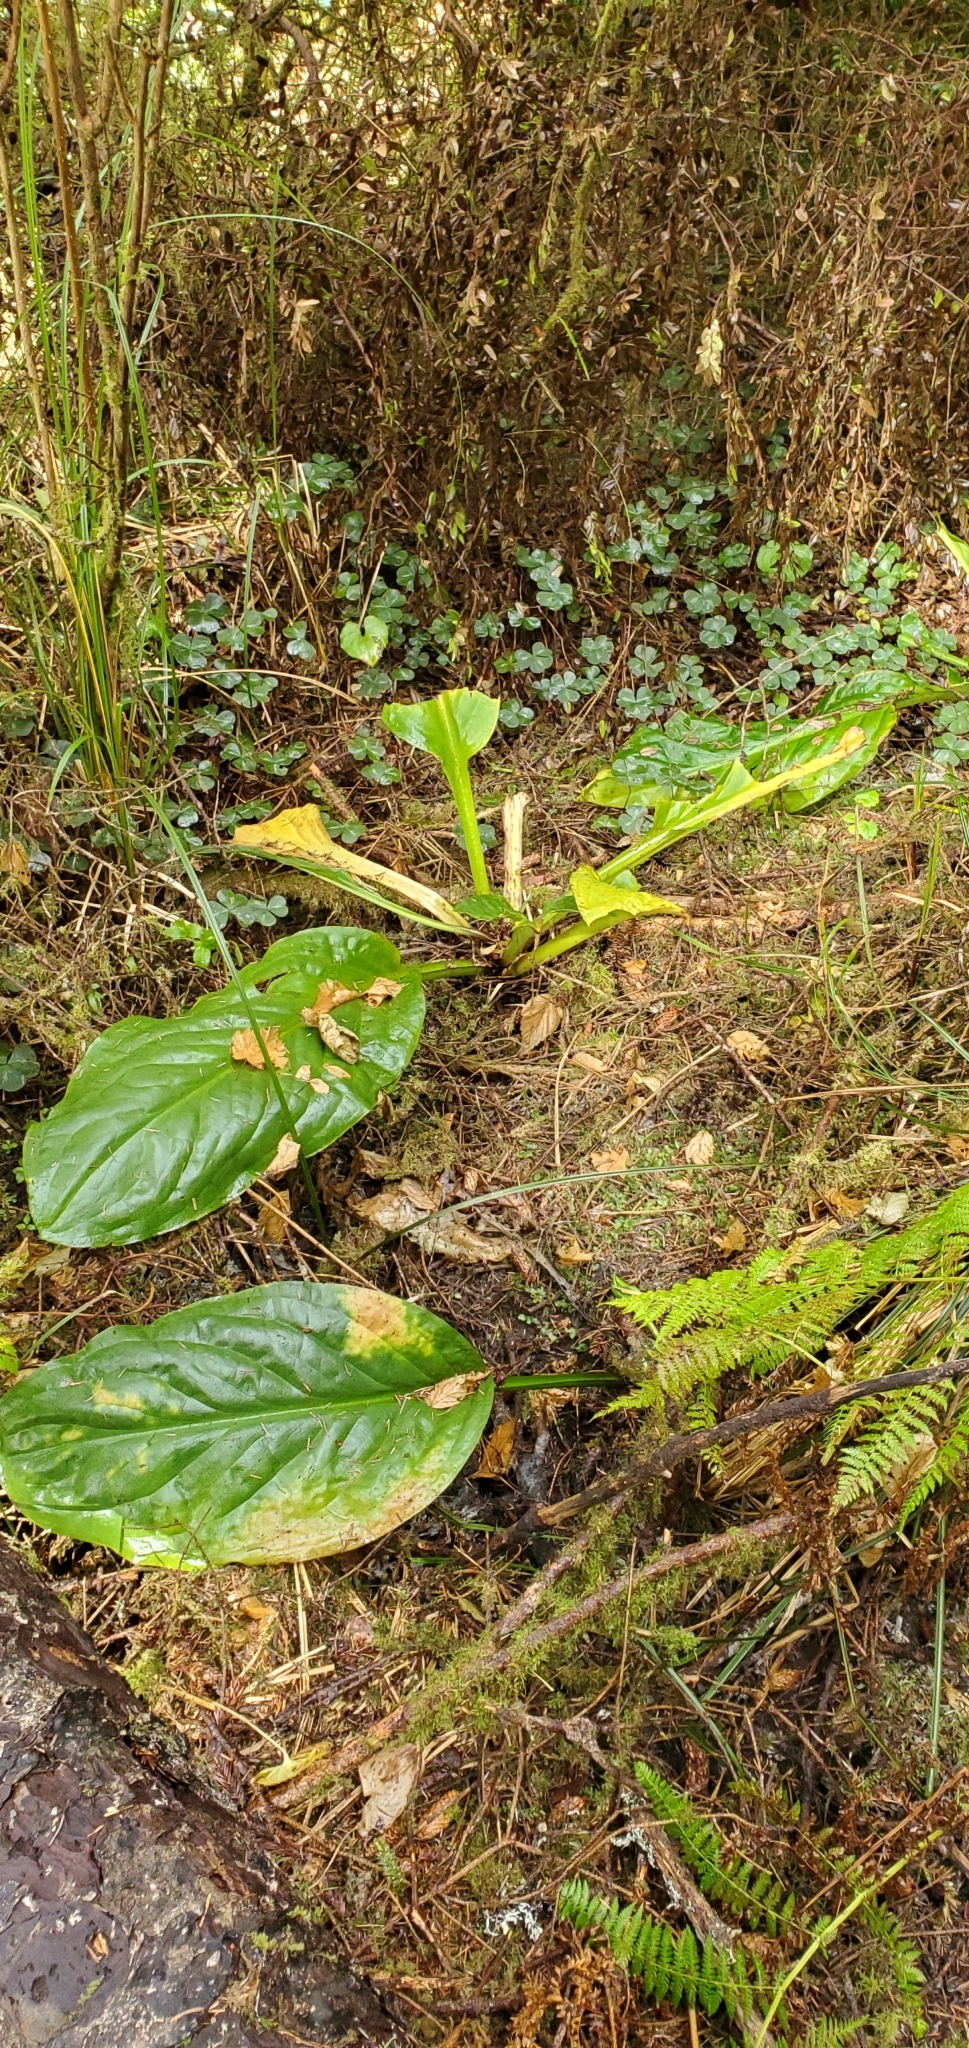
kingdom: Plantae
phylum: Tracheophyta
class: Liliopsida
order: Alismatales
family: Araceae
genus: Lysichiton
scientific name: Lysichiton americanus
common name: American skunk cabbage
